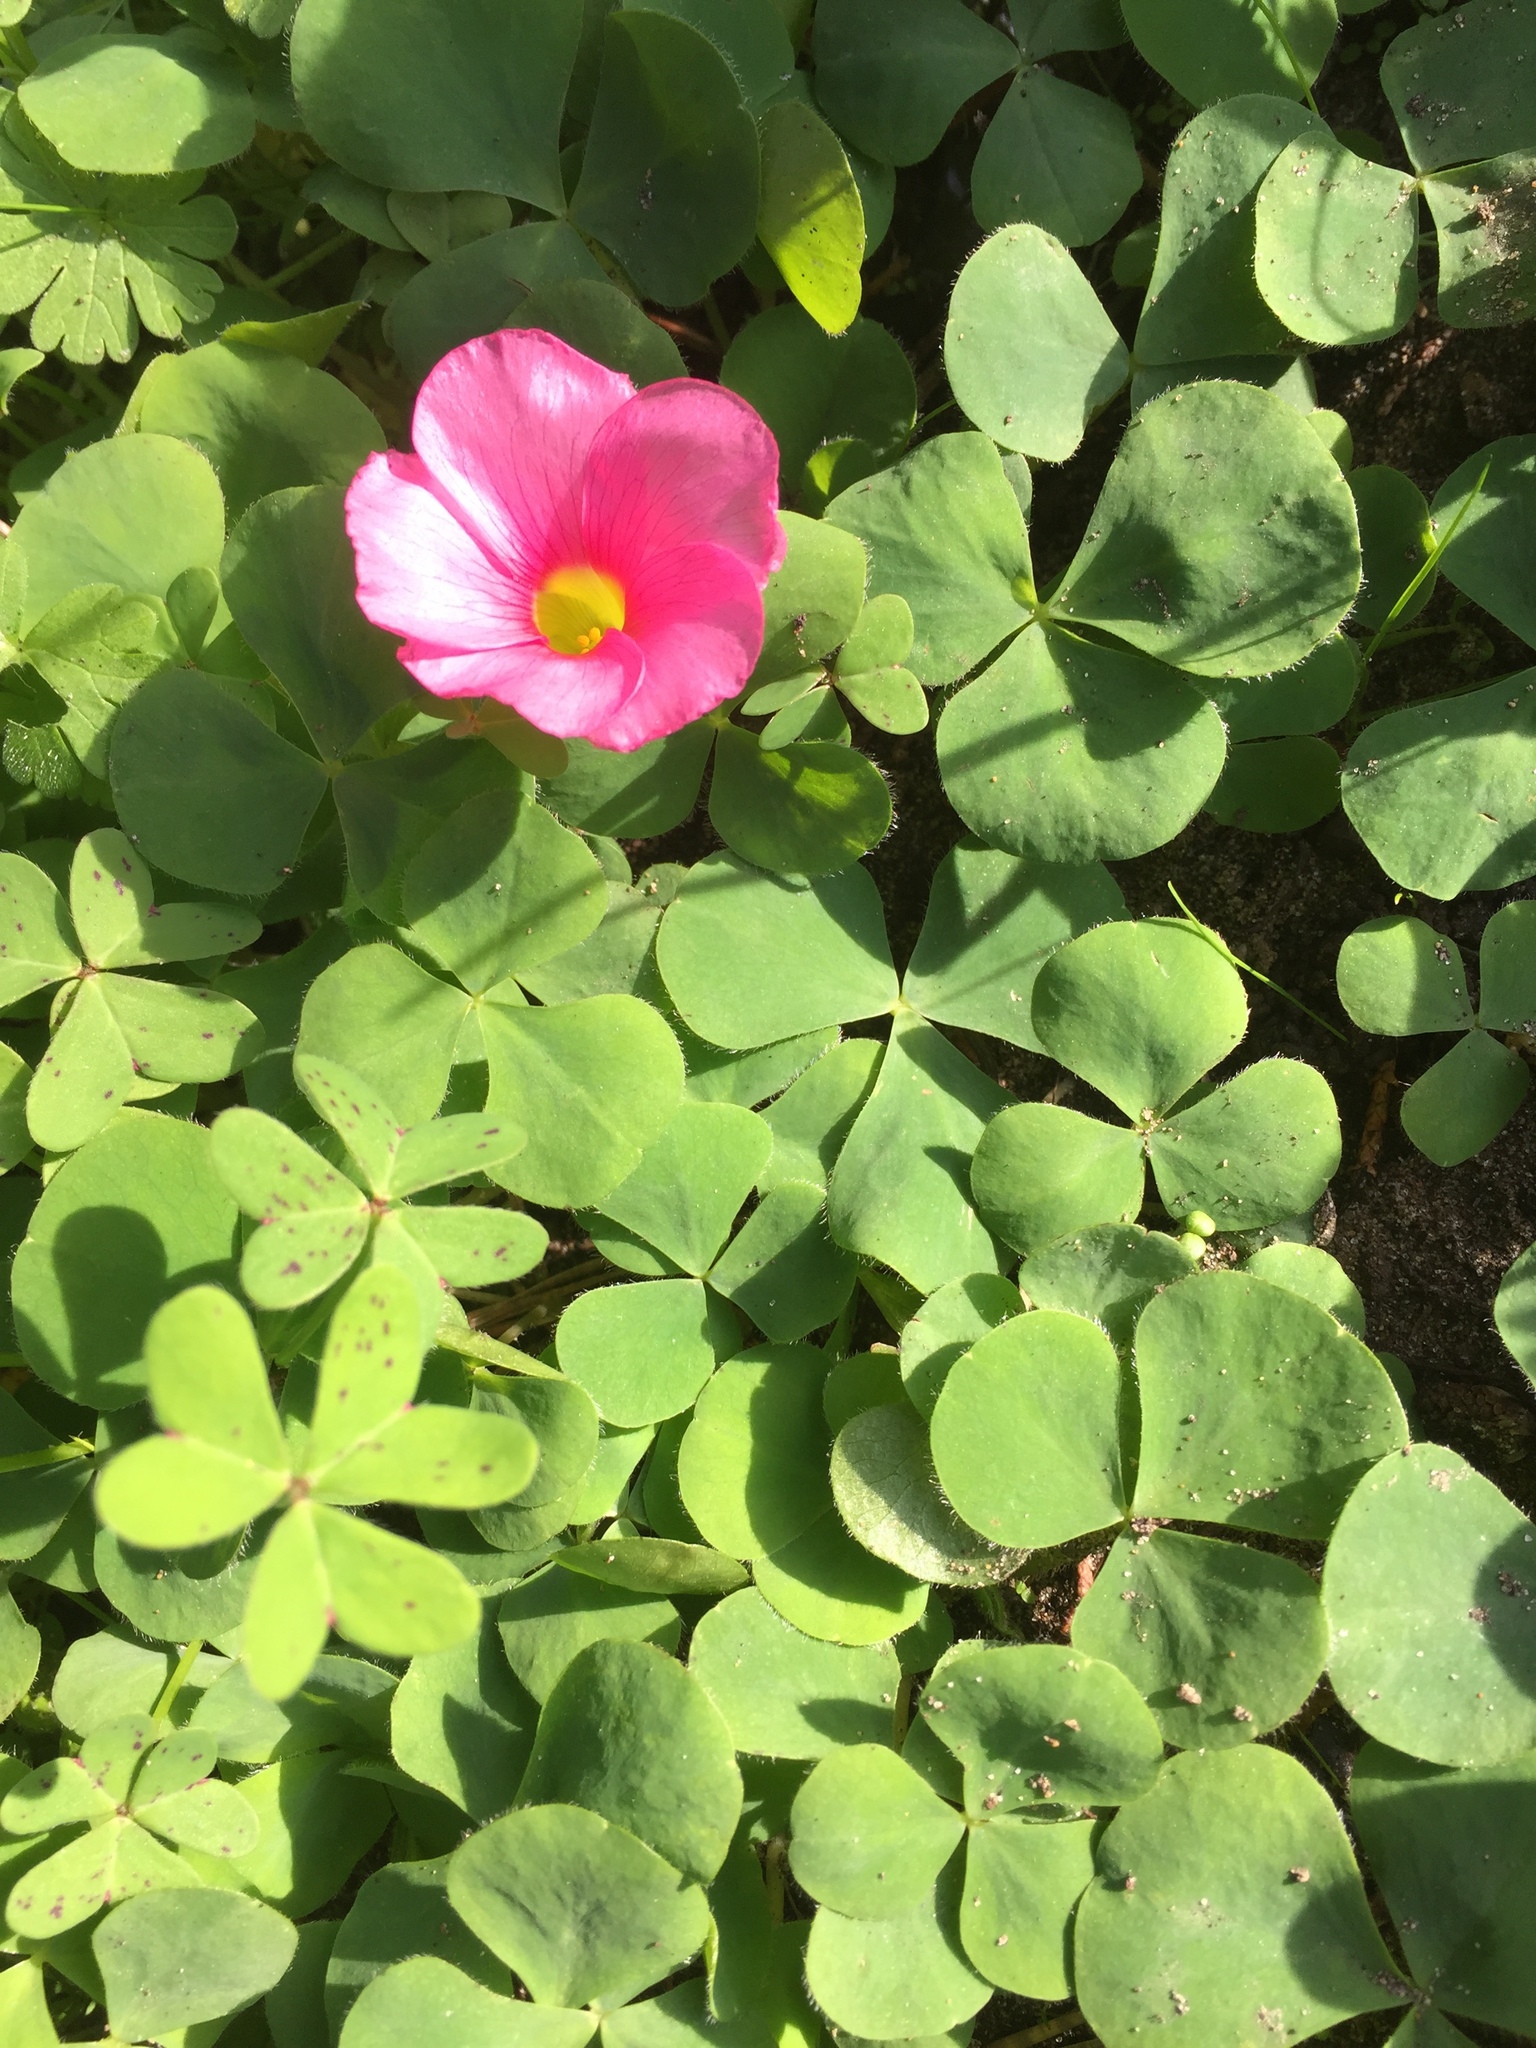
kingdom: Plantae
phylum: Tracheophyta
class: Magnoliopsida
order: Oxalidales
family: Oxalidaceae
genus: Oxalis
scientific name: Oxalis purpurea
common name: Purple woodsorrel
